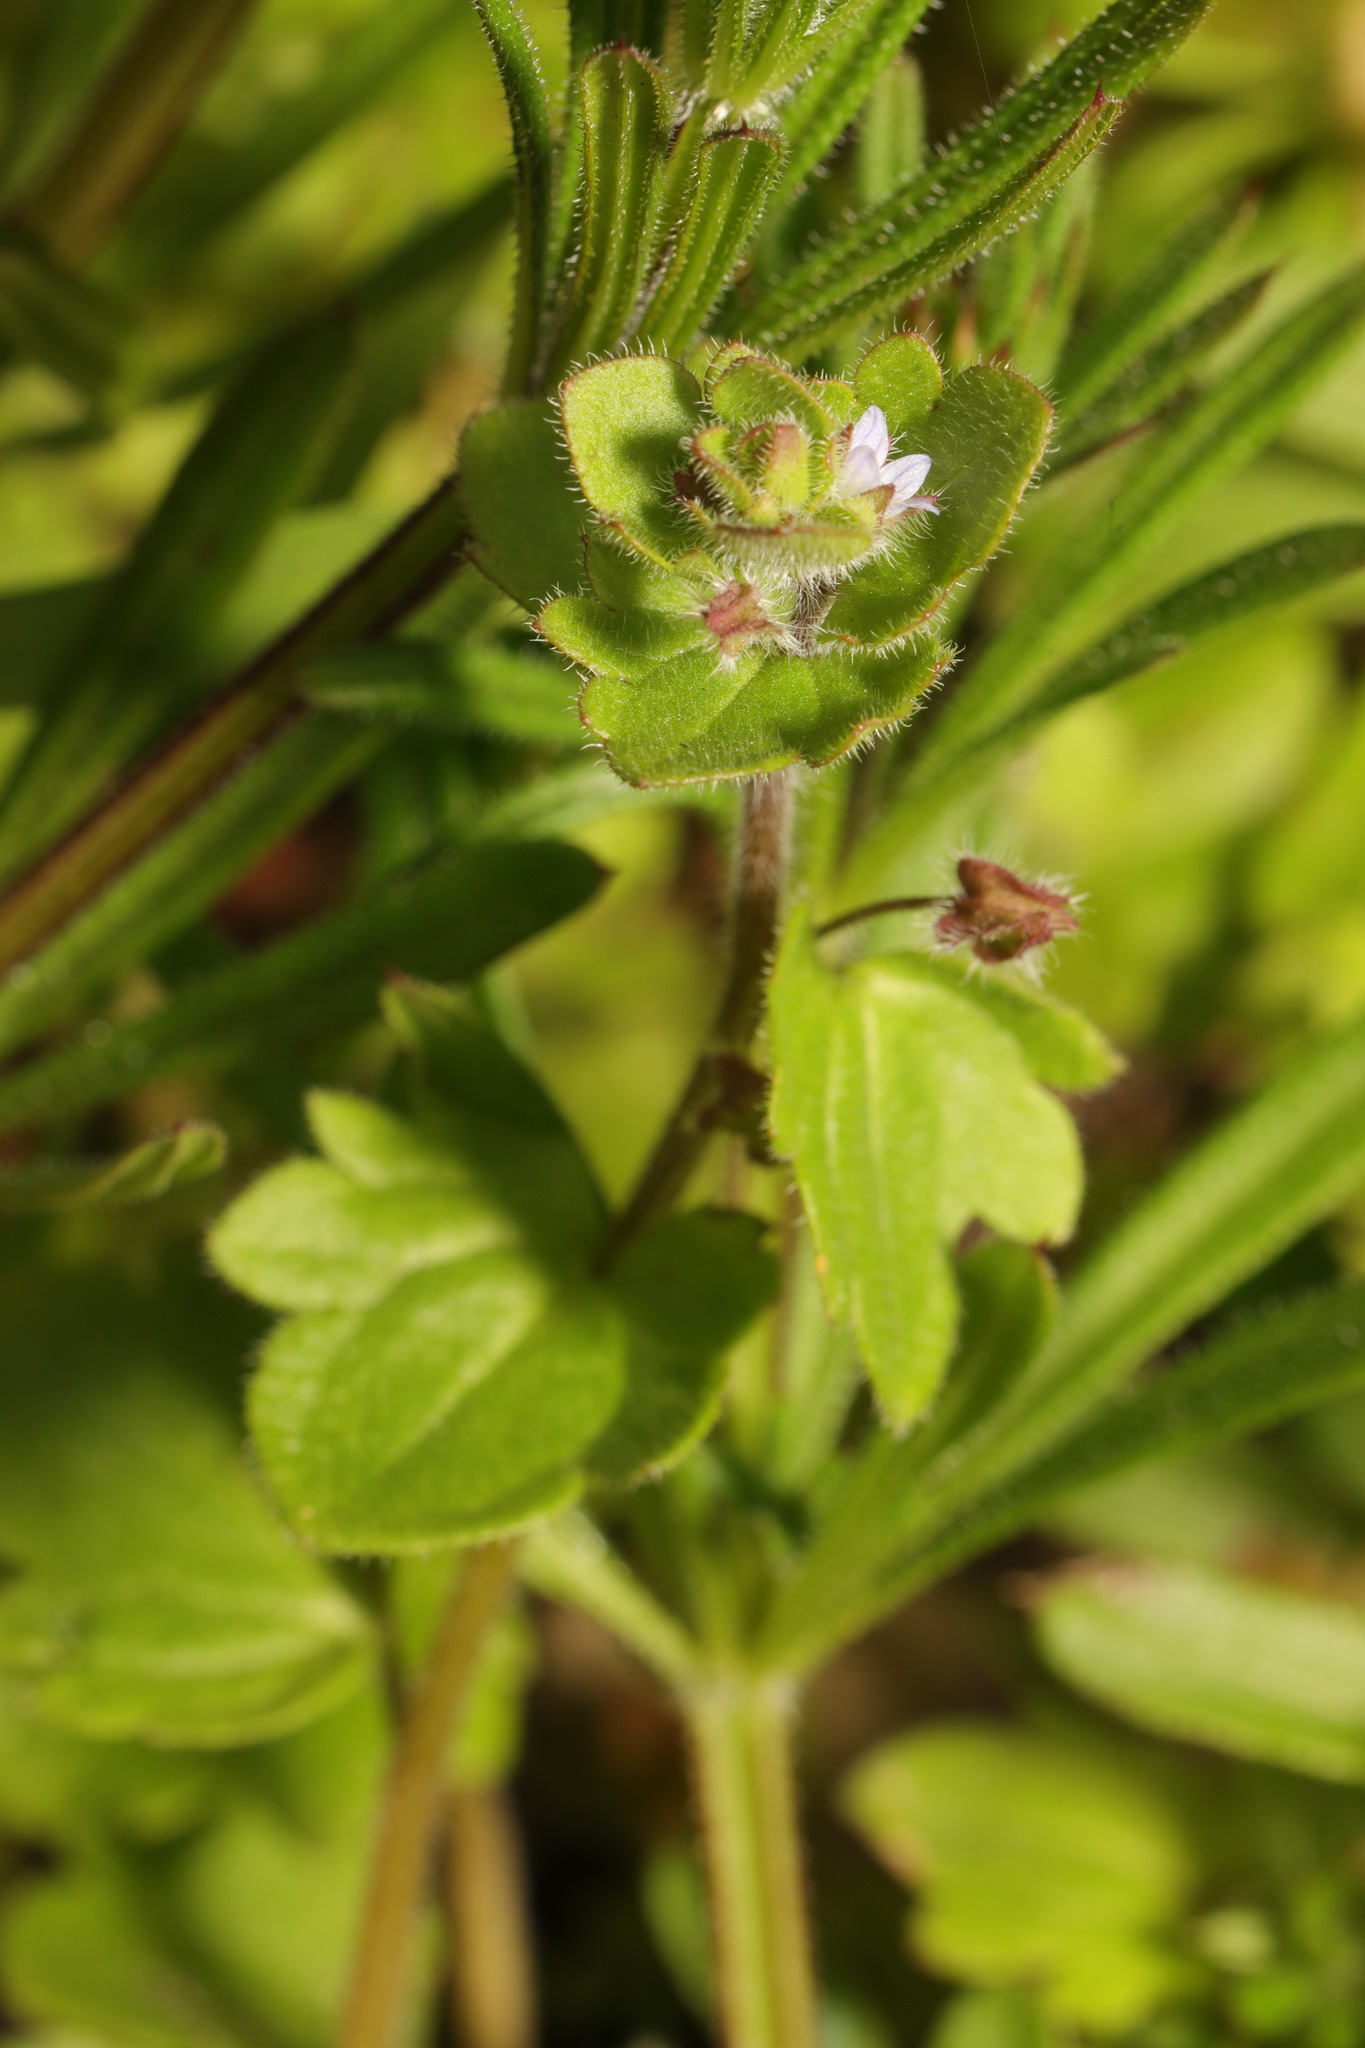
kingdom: Plantae
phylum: Tracheophyta
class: Magnoliopsida
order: Lamiales
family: Plantaginaceae
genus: Veronica
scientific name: Veronica sublobata
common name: False ivy-leaved speedwell
